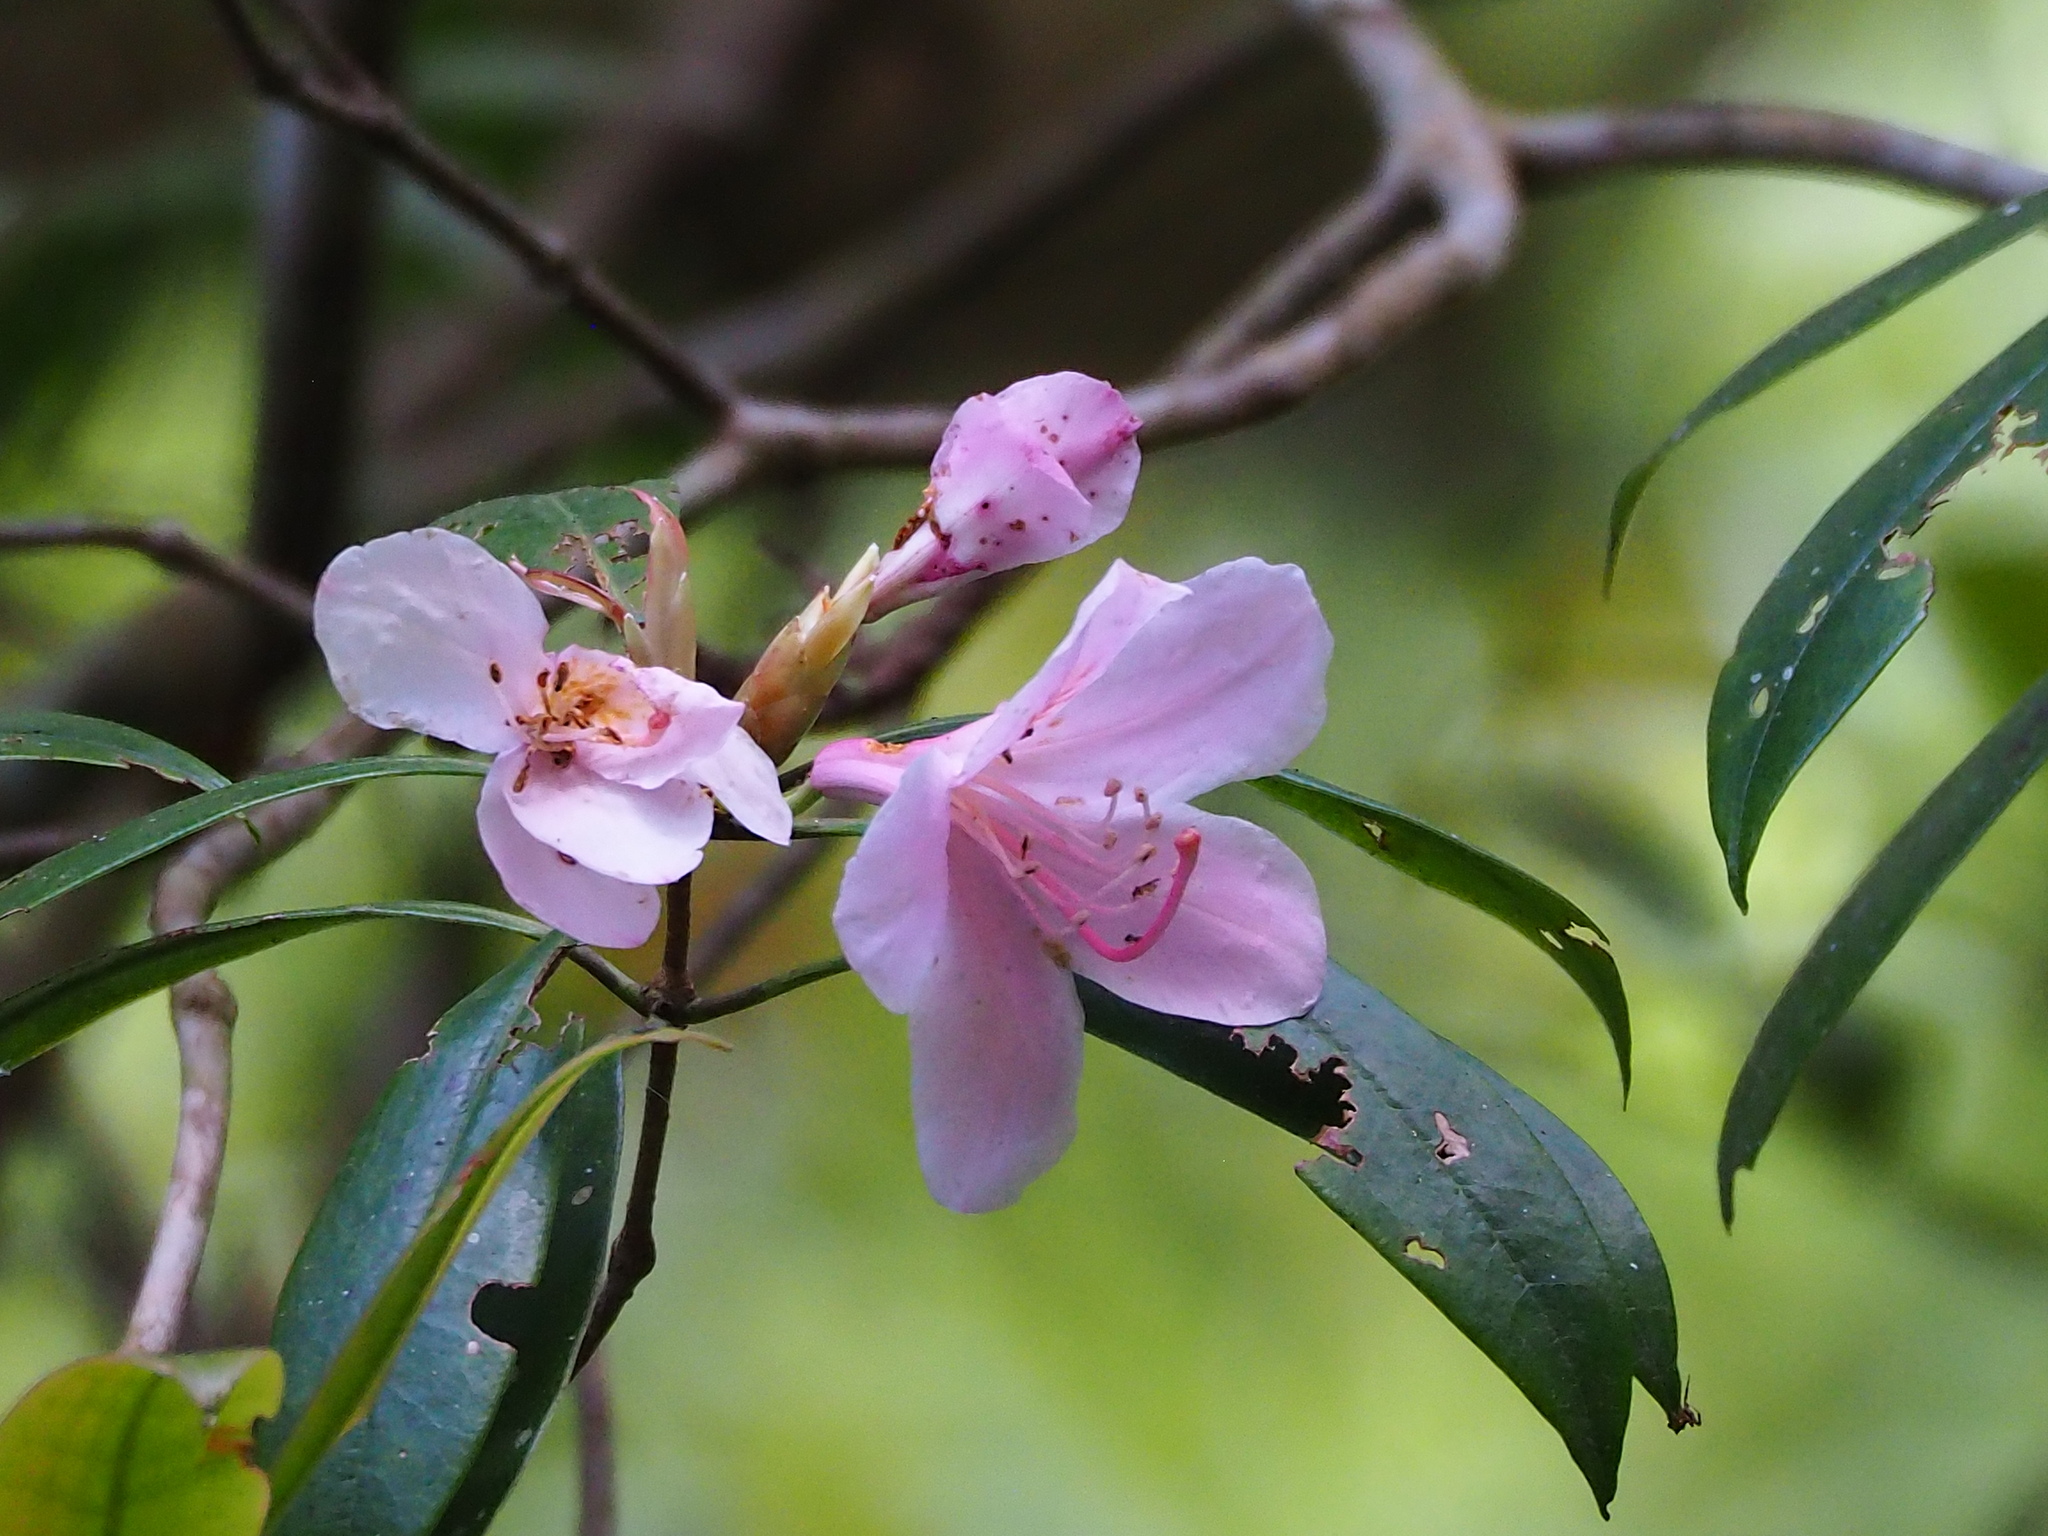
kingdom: Plantae
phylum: Tracheophyta
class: Magnoliopsida
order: Ericales
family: Ericaceae
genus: Rhododendron
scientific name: Rhododendron latoucheae
